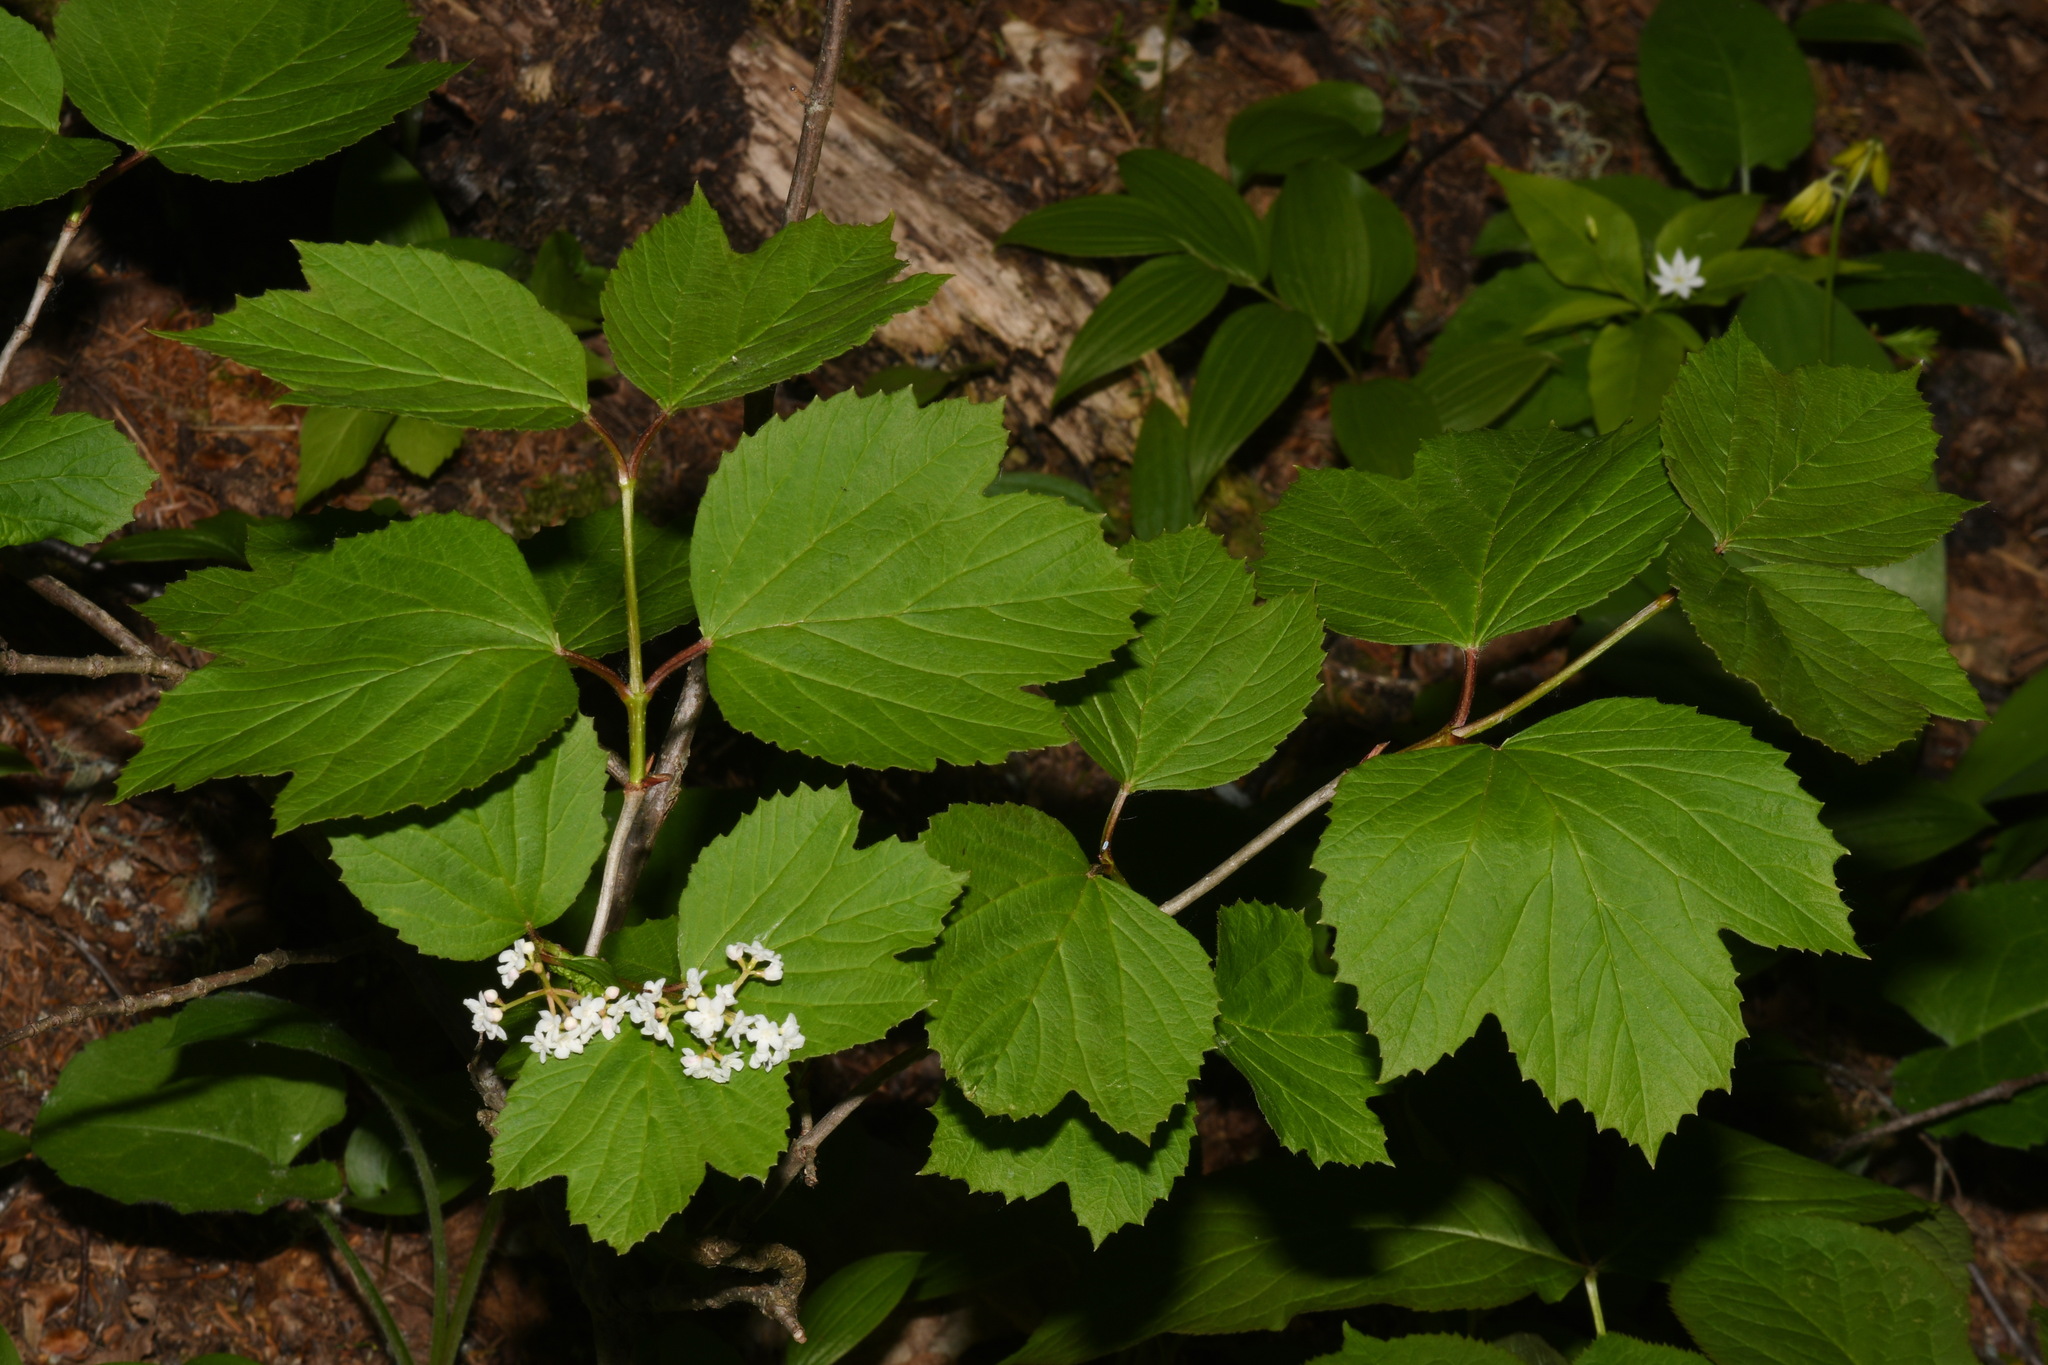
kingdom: Plantae
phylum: Tracheophyta
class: Magnoliopsida
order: Dipsacales
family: Viburnaceae
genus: Viburnum
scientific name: Viburnum edule
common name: Mooseberry
